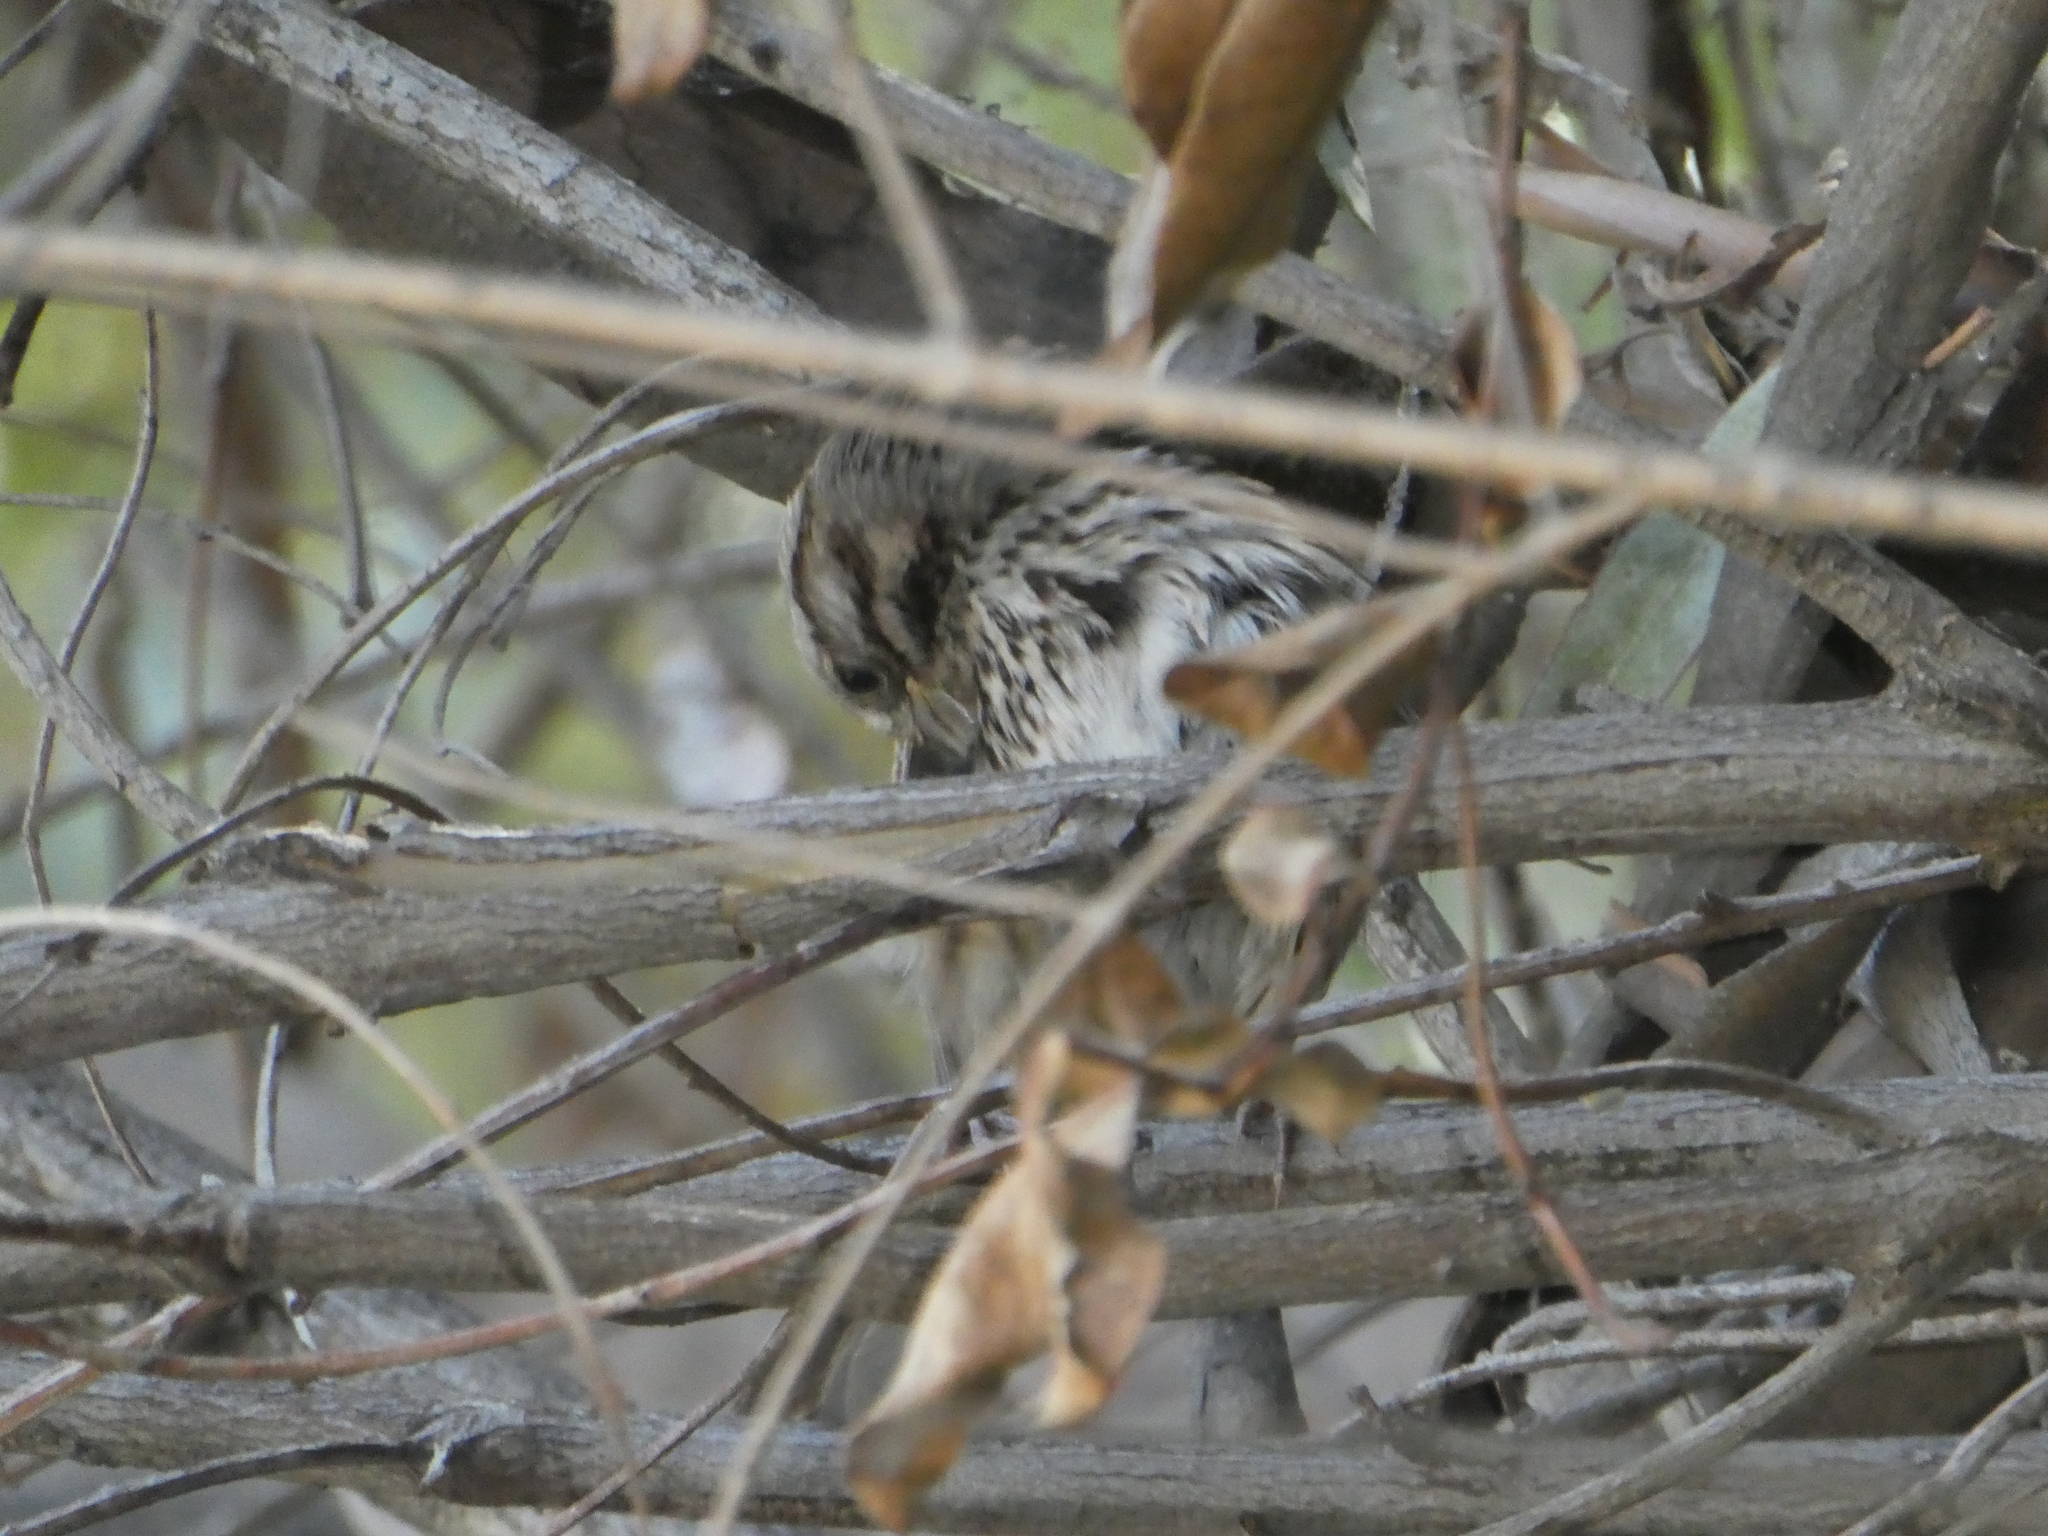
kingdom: Animalia
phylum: Chordata
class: Aves
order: Passeriformes
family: Passerellidae
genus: Melospiza
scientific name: Melospiza melodia
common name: Song sparrow
